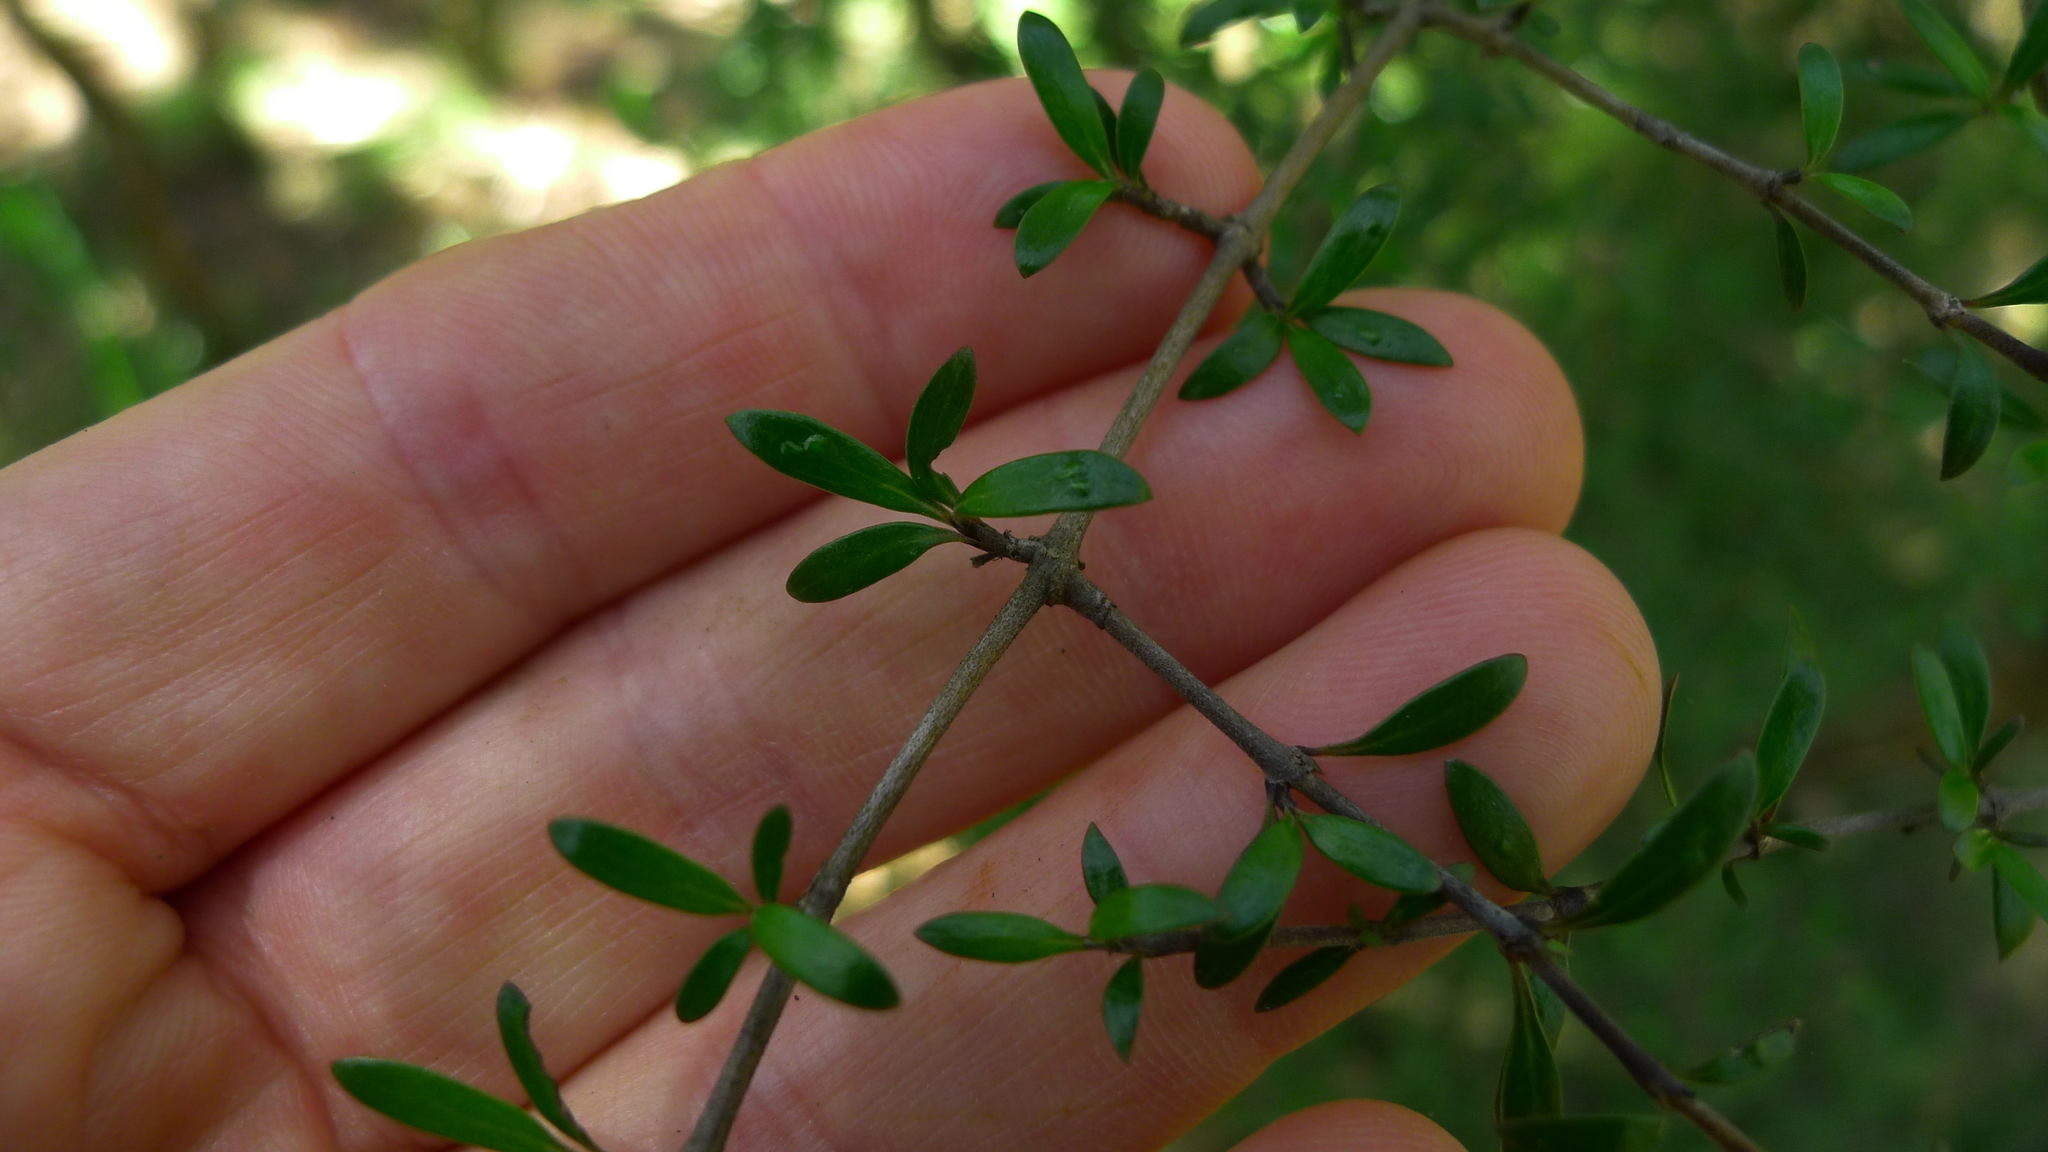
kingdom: Plantae
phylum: Tracheophyta
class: Magnoliopsida
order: Gentianales
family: Rubiaceae
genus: Coprosma
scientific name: Coprosma propinqua
